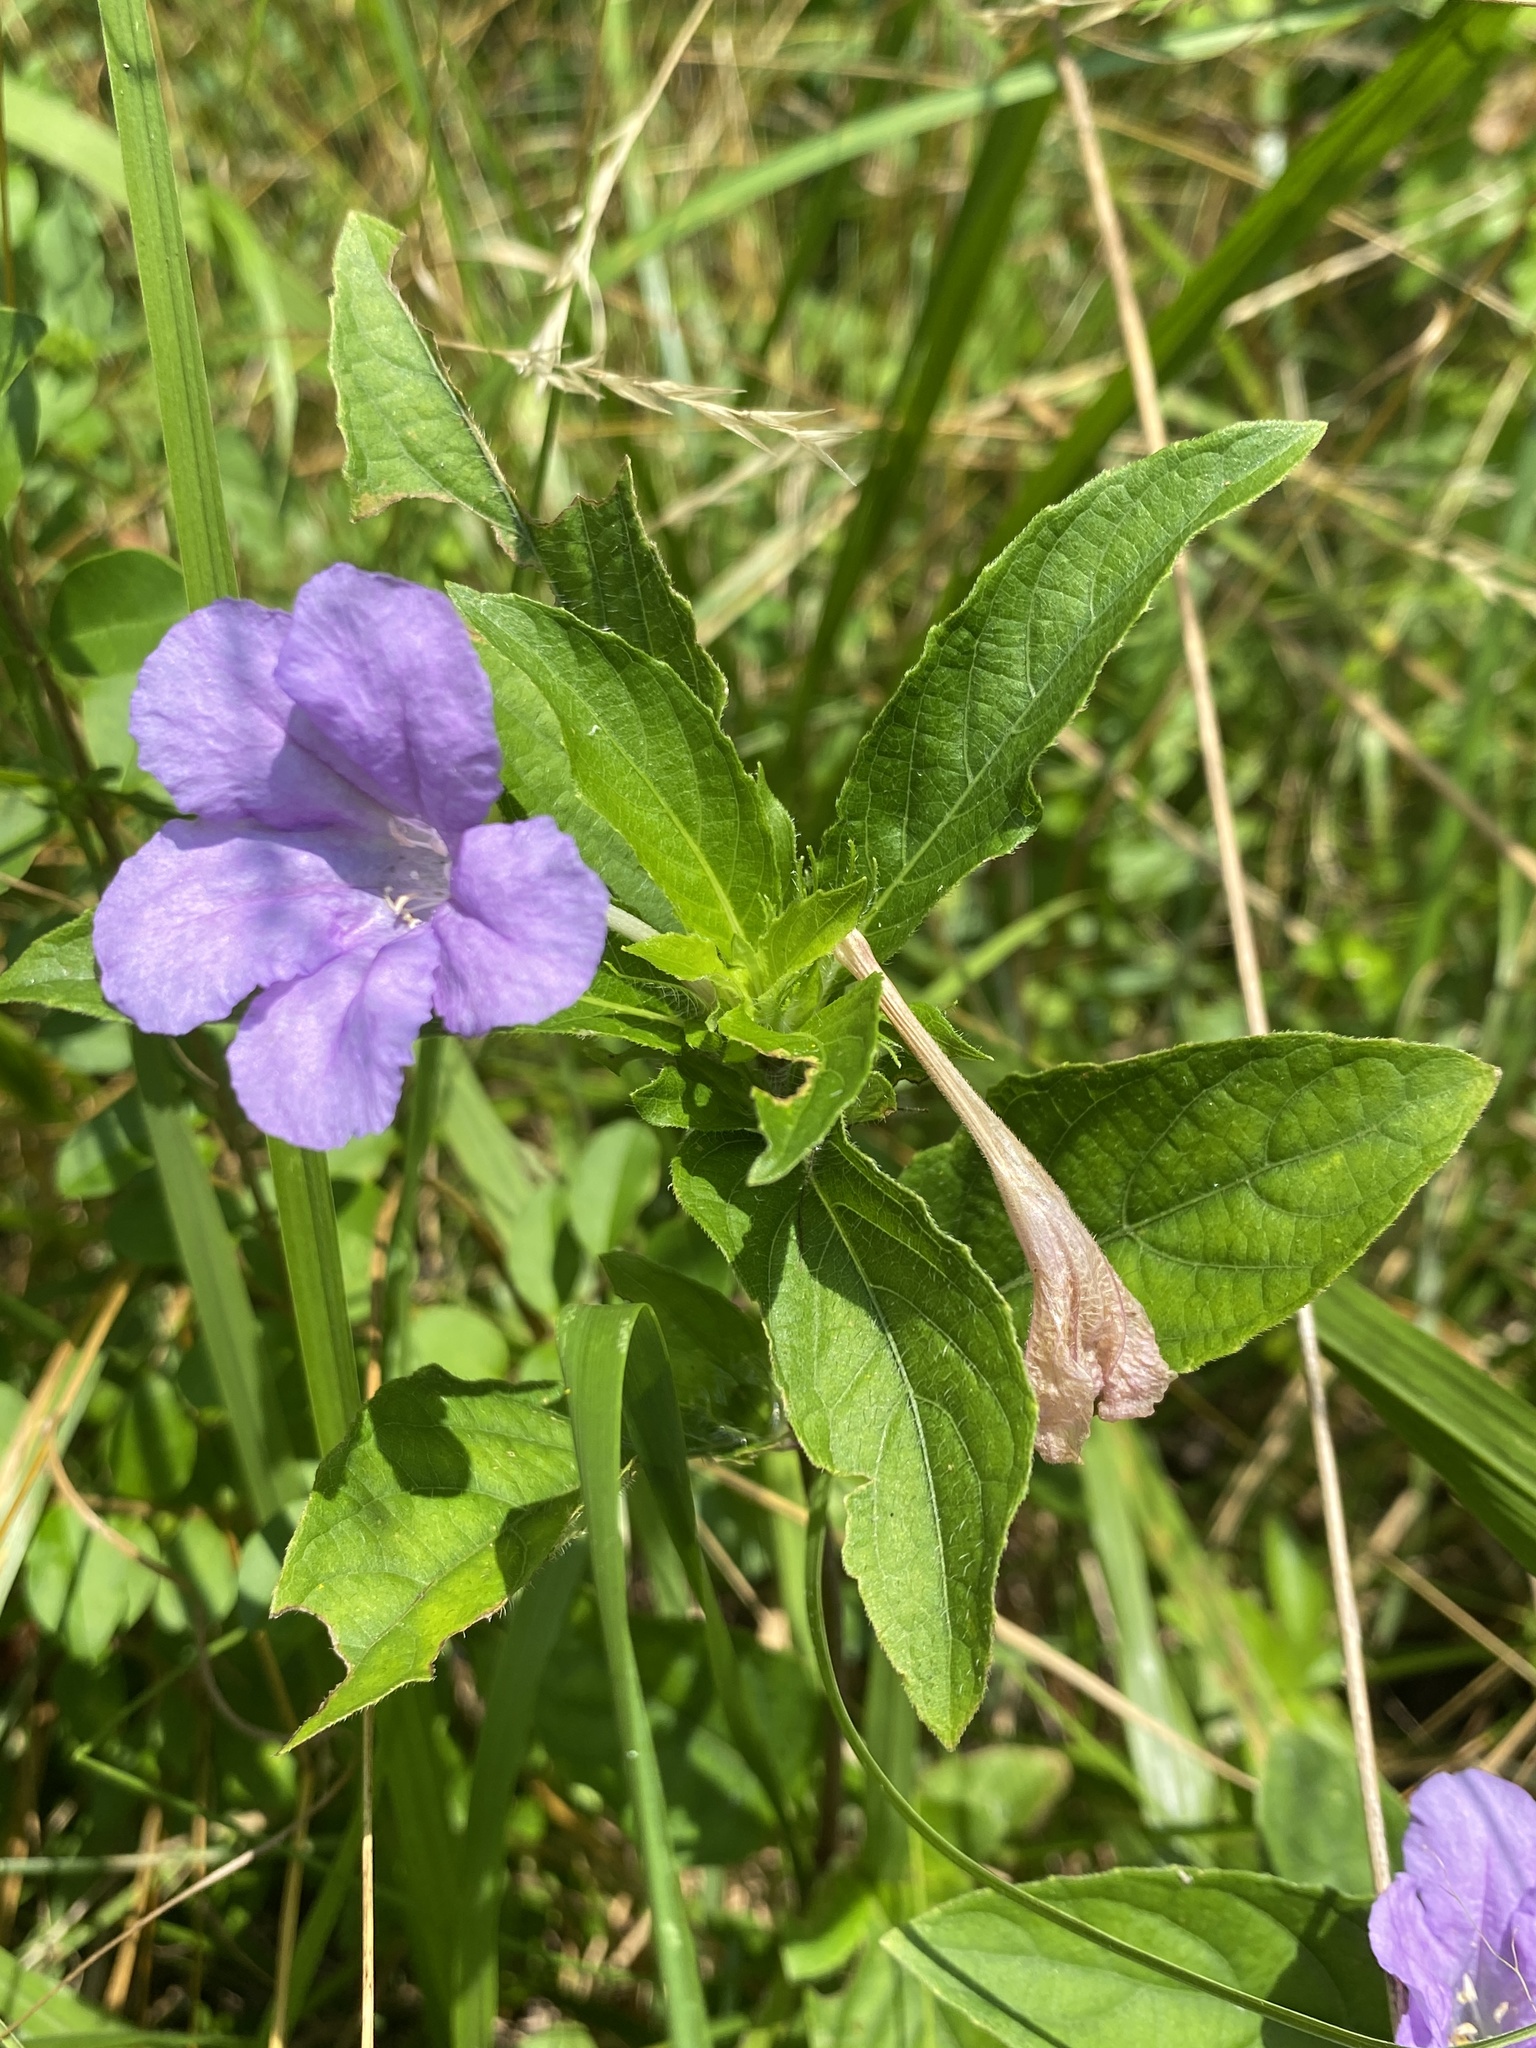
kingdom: Plantae
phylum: Tracheophyta
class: Magnoliopsida
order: Lamiales
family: Acanthaceae
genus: Ruellia
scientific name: Ruellia caroliniensis
